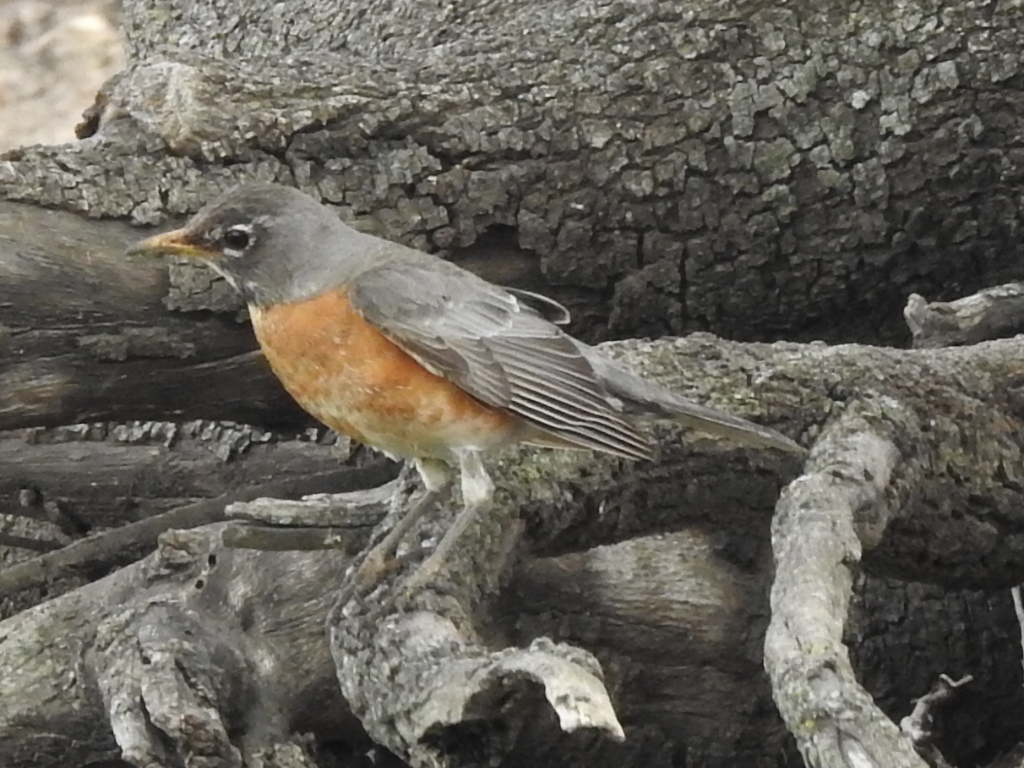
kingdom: Animalia
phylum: Chordata
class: Aves
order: Passeriformes
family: Turdidae
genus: Turdus
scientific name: Turdus migratorius
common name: American robin
